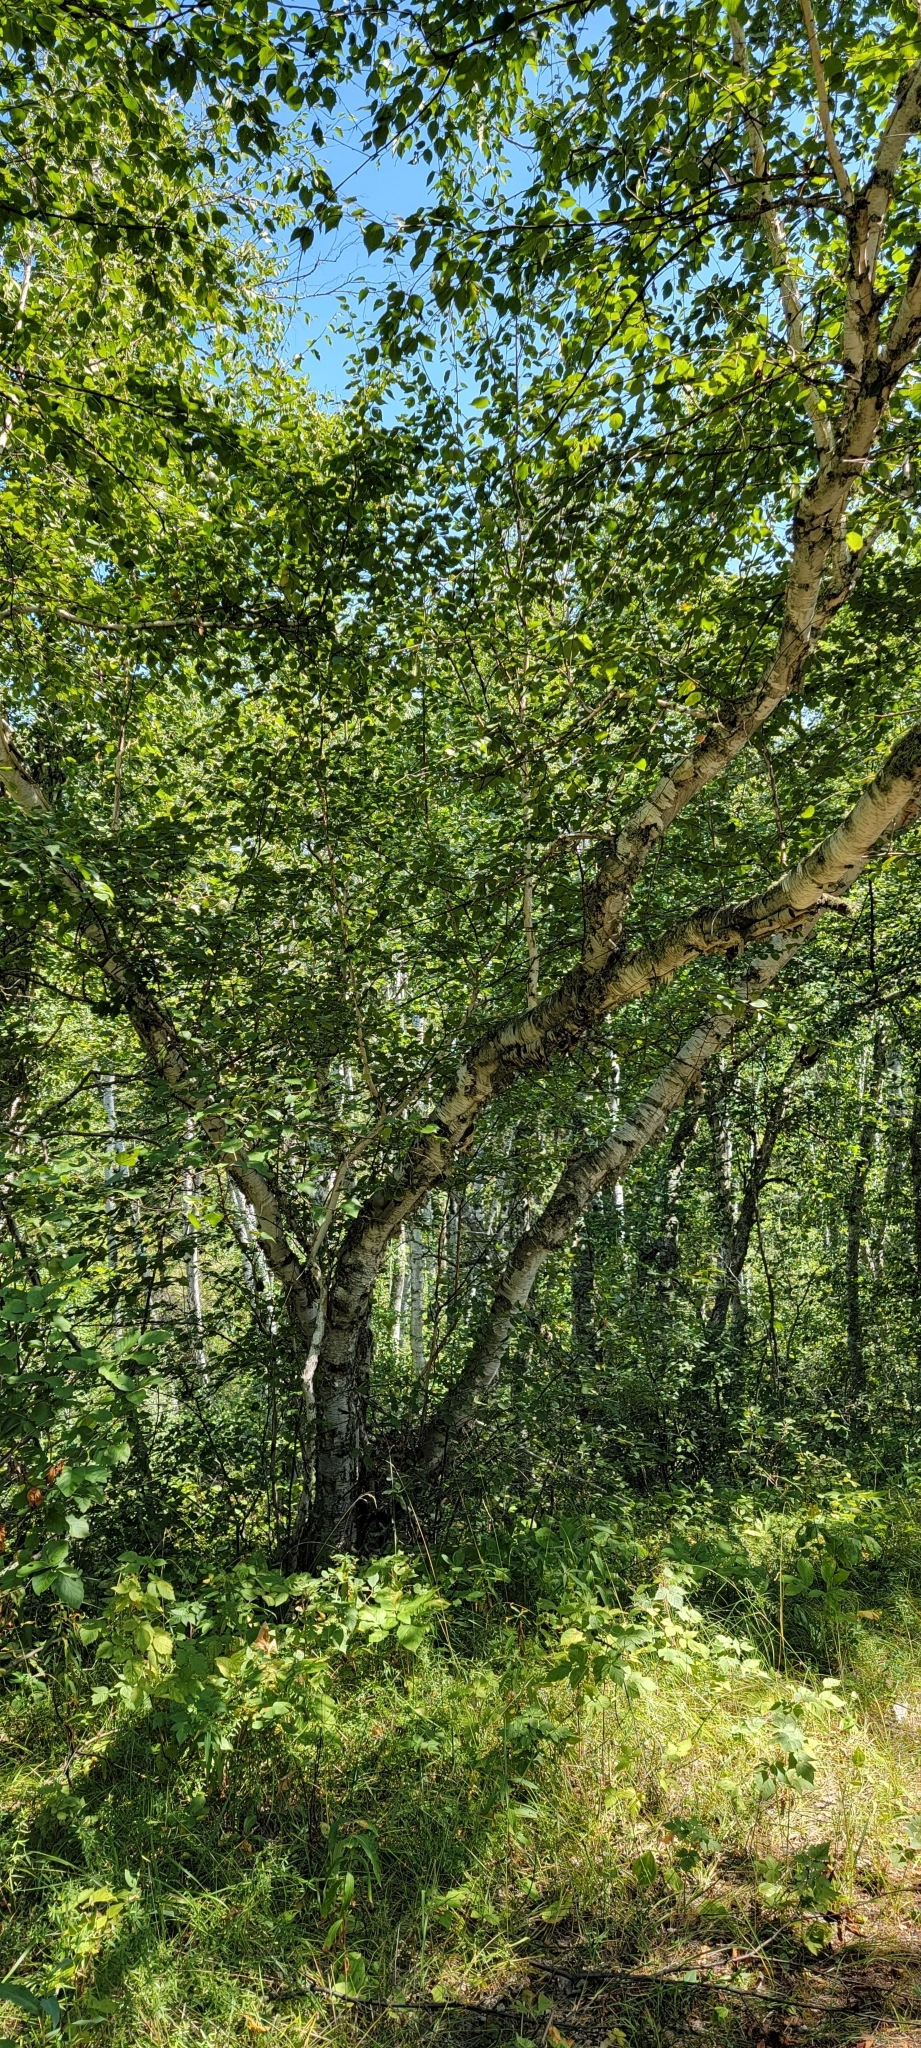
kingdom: Plantae
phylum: Tracheophyta
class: Magnoliopsida
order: Fagales
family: Betulaceae
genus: Betula
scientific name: Betula papyrifera
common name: Paper birch
